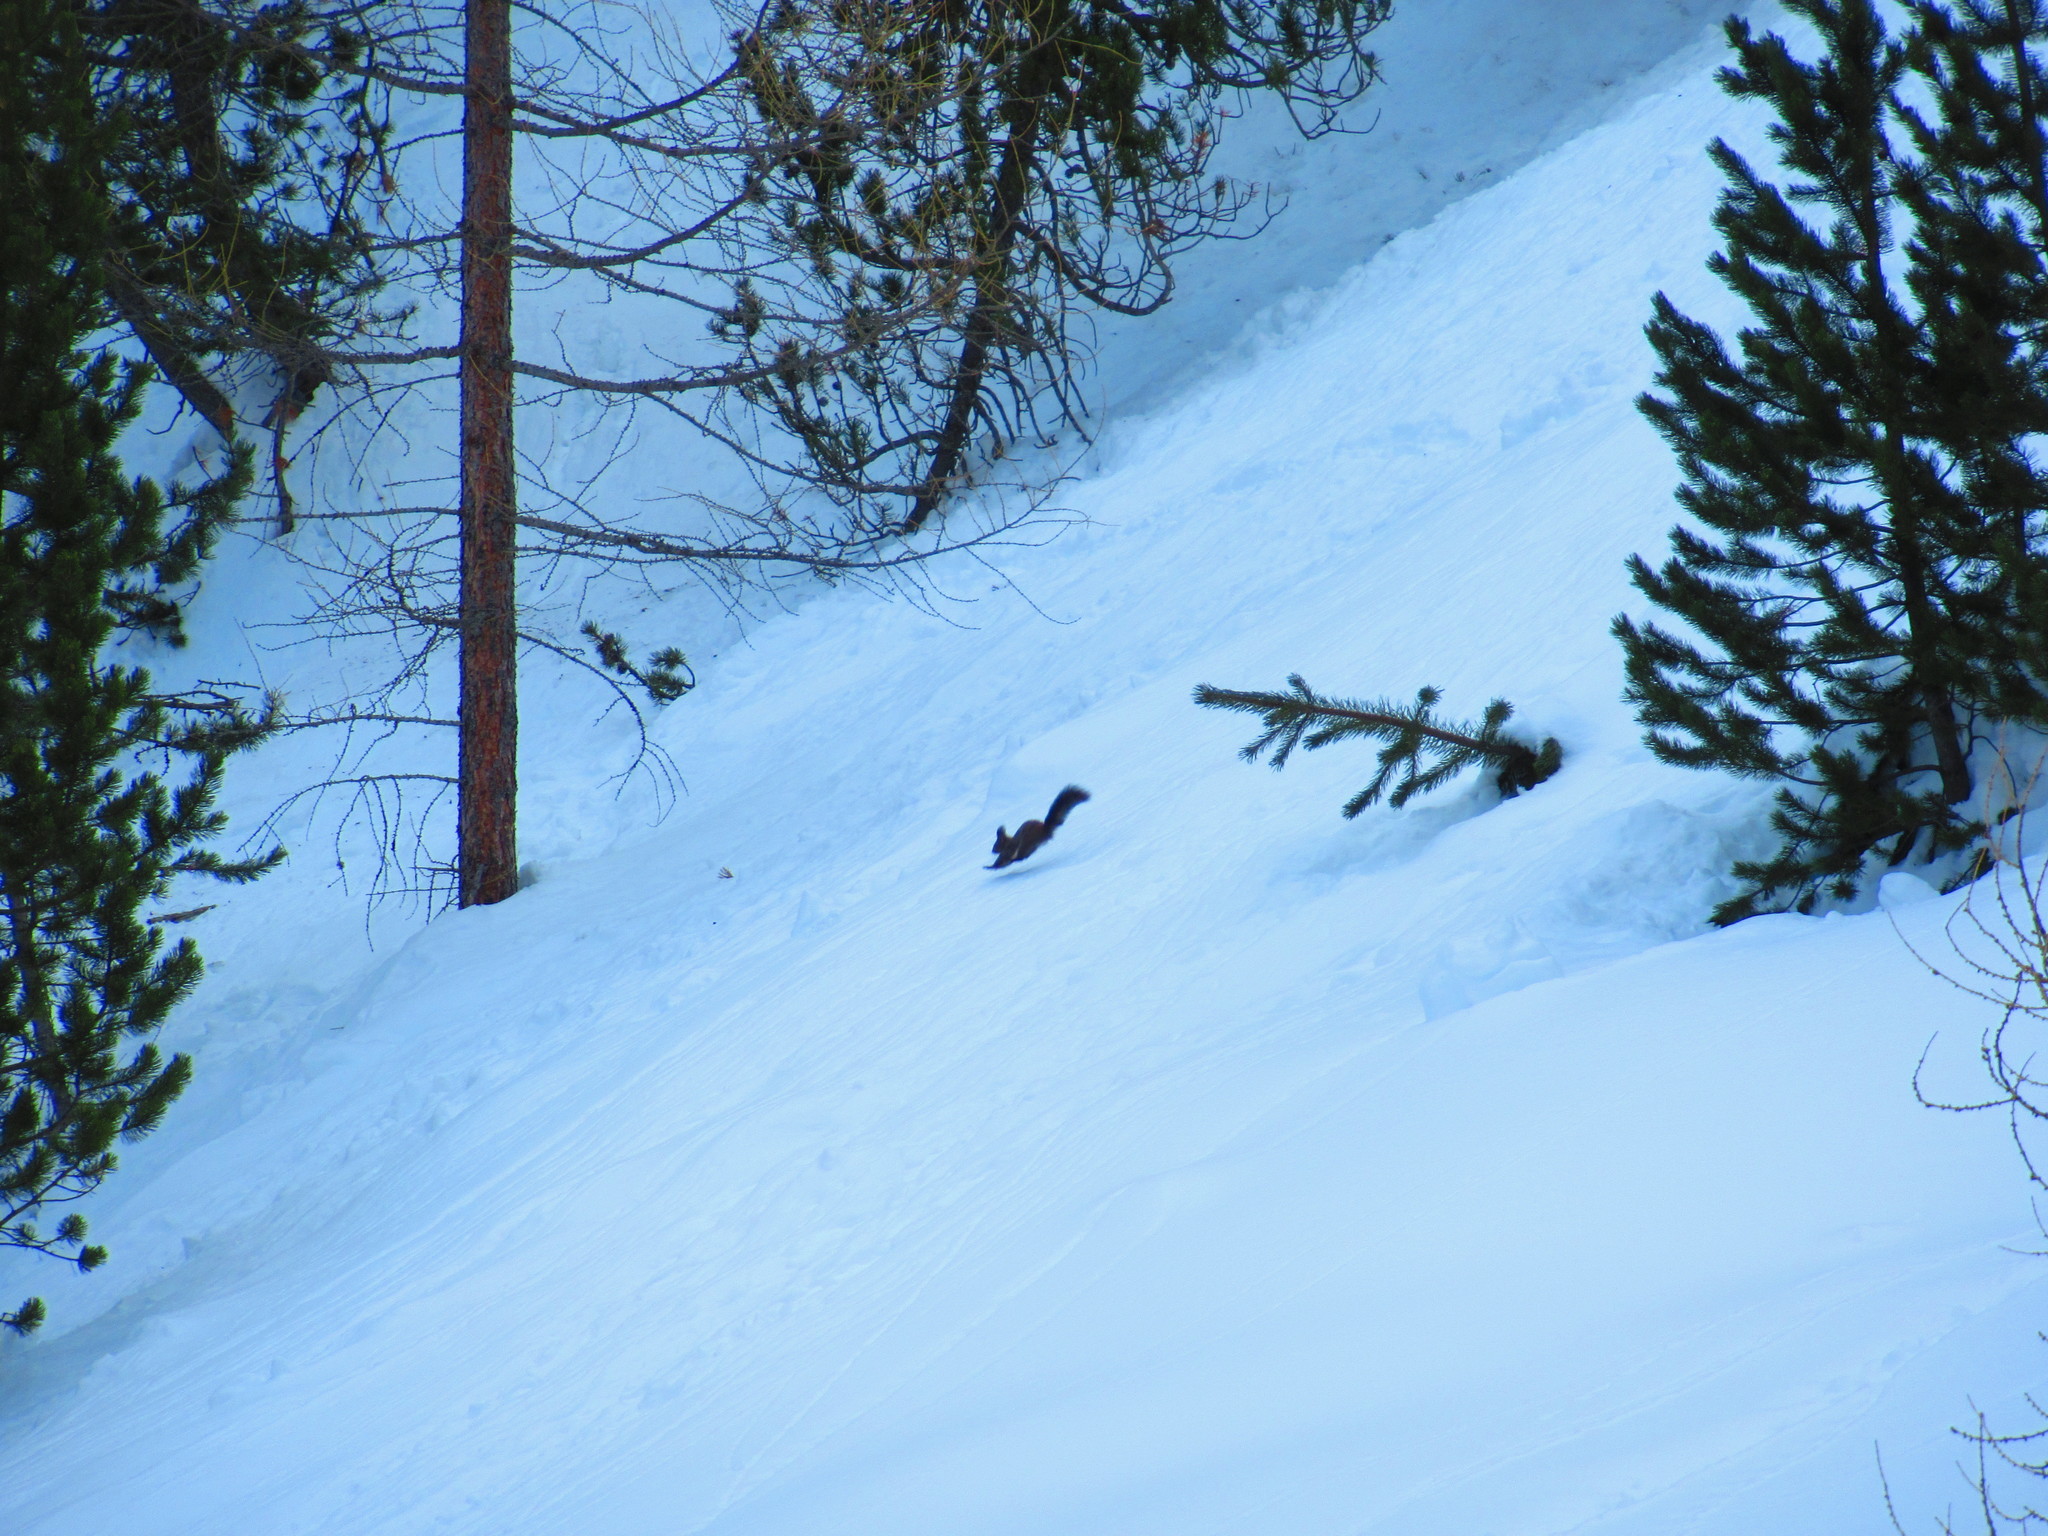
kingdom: Animalia
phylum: Chordata
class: Mammalia
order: Rodentia
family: Sciuridae
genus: Sciurus
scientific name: Sciurus vulgaris
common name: Eurasian red squirrel
